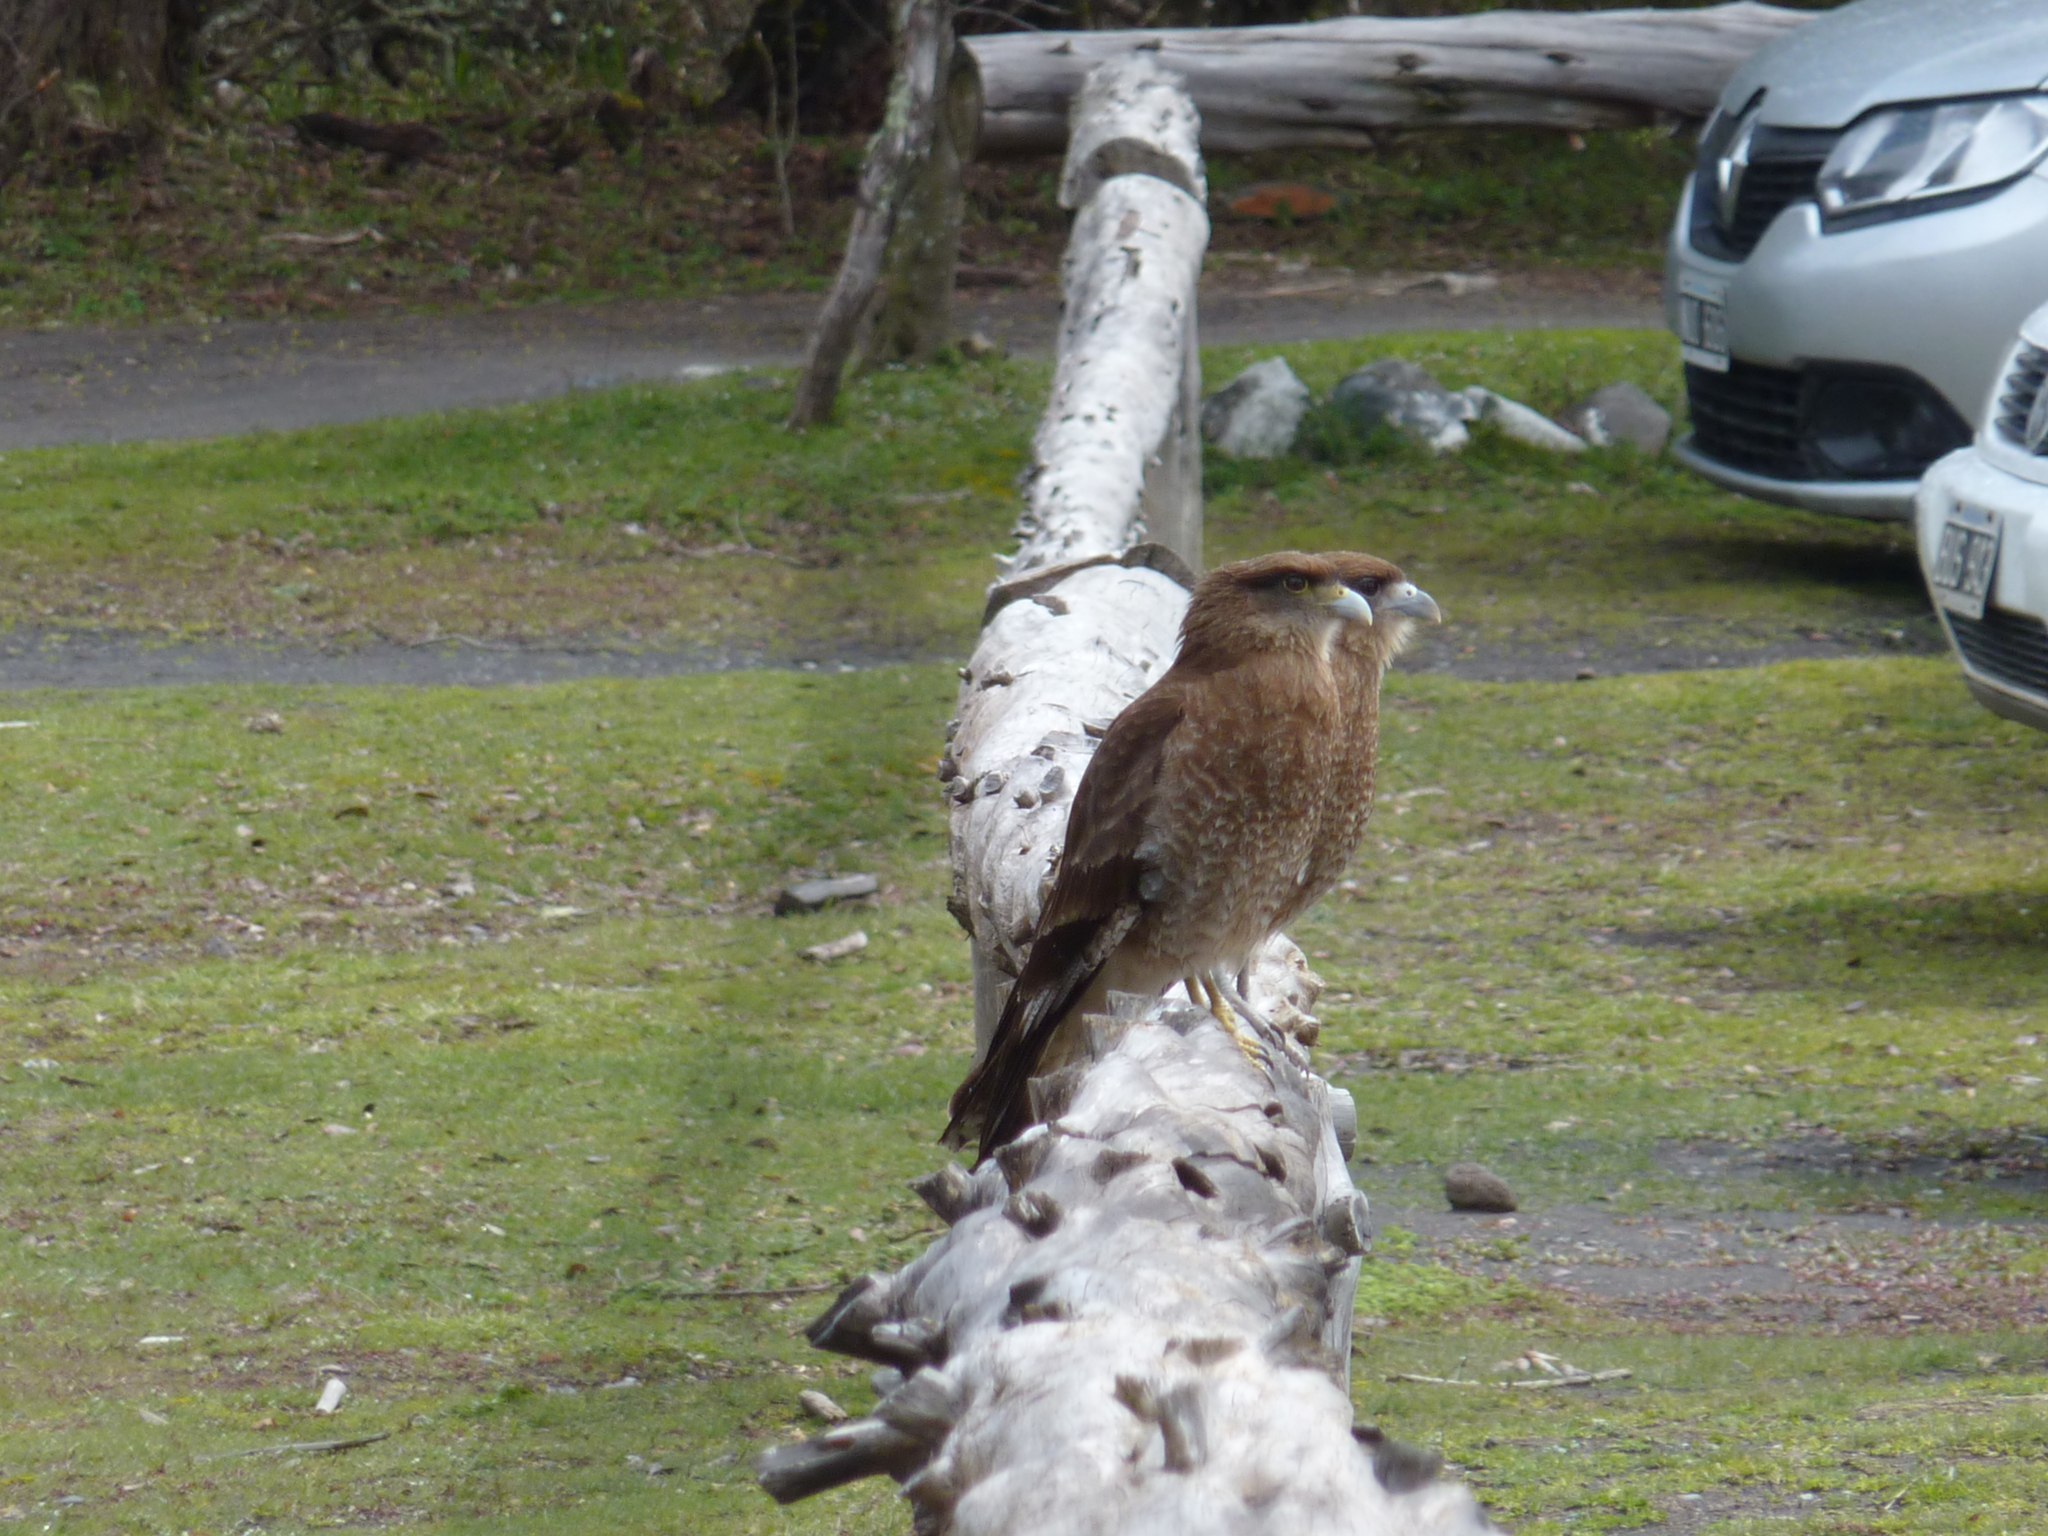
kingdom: Animalia
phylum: Chordata
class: Aves
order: Falconiformes
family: Falconidae
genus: Daptrius
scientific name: Daptrius
